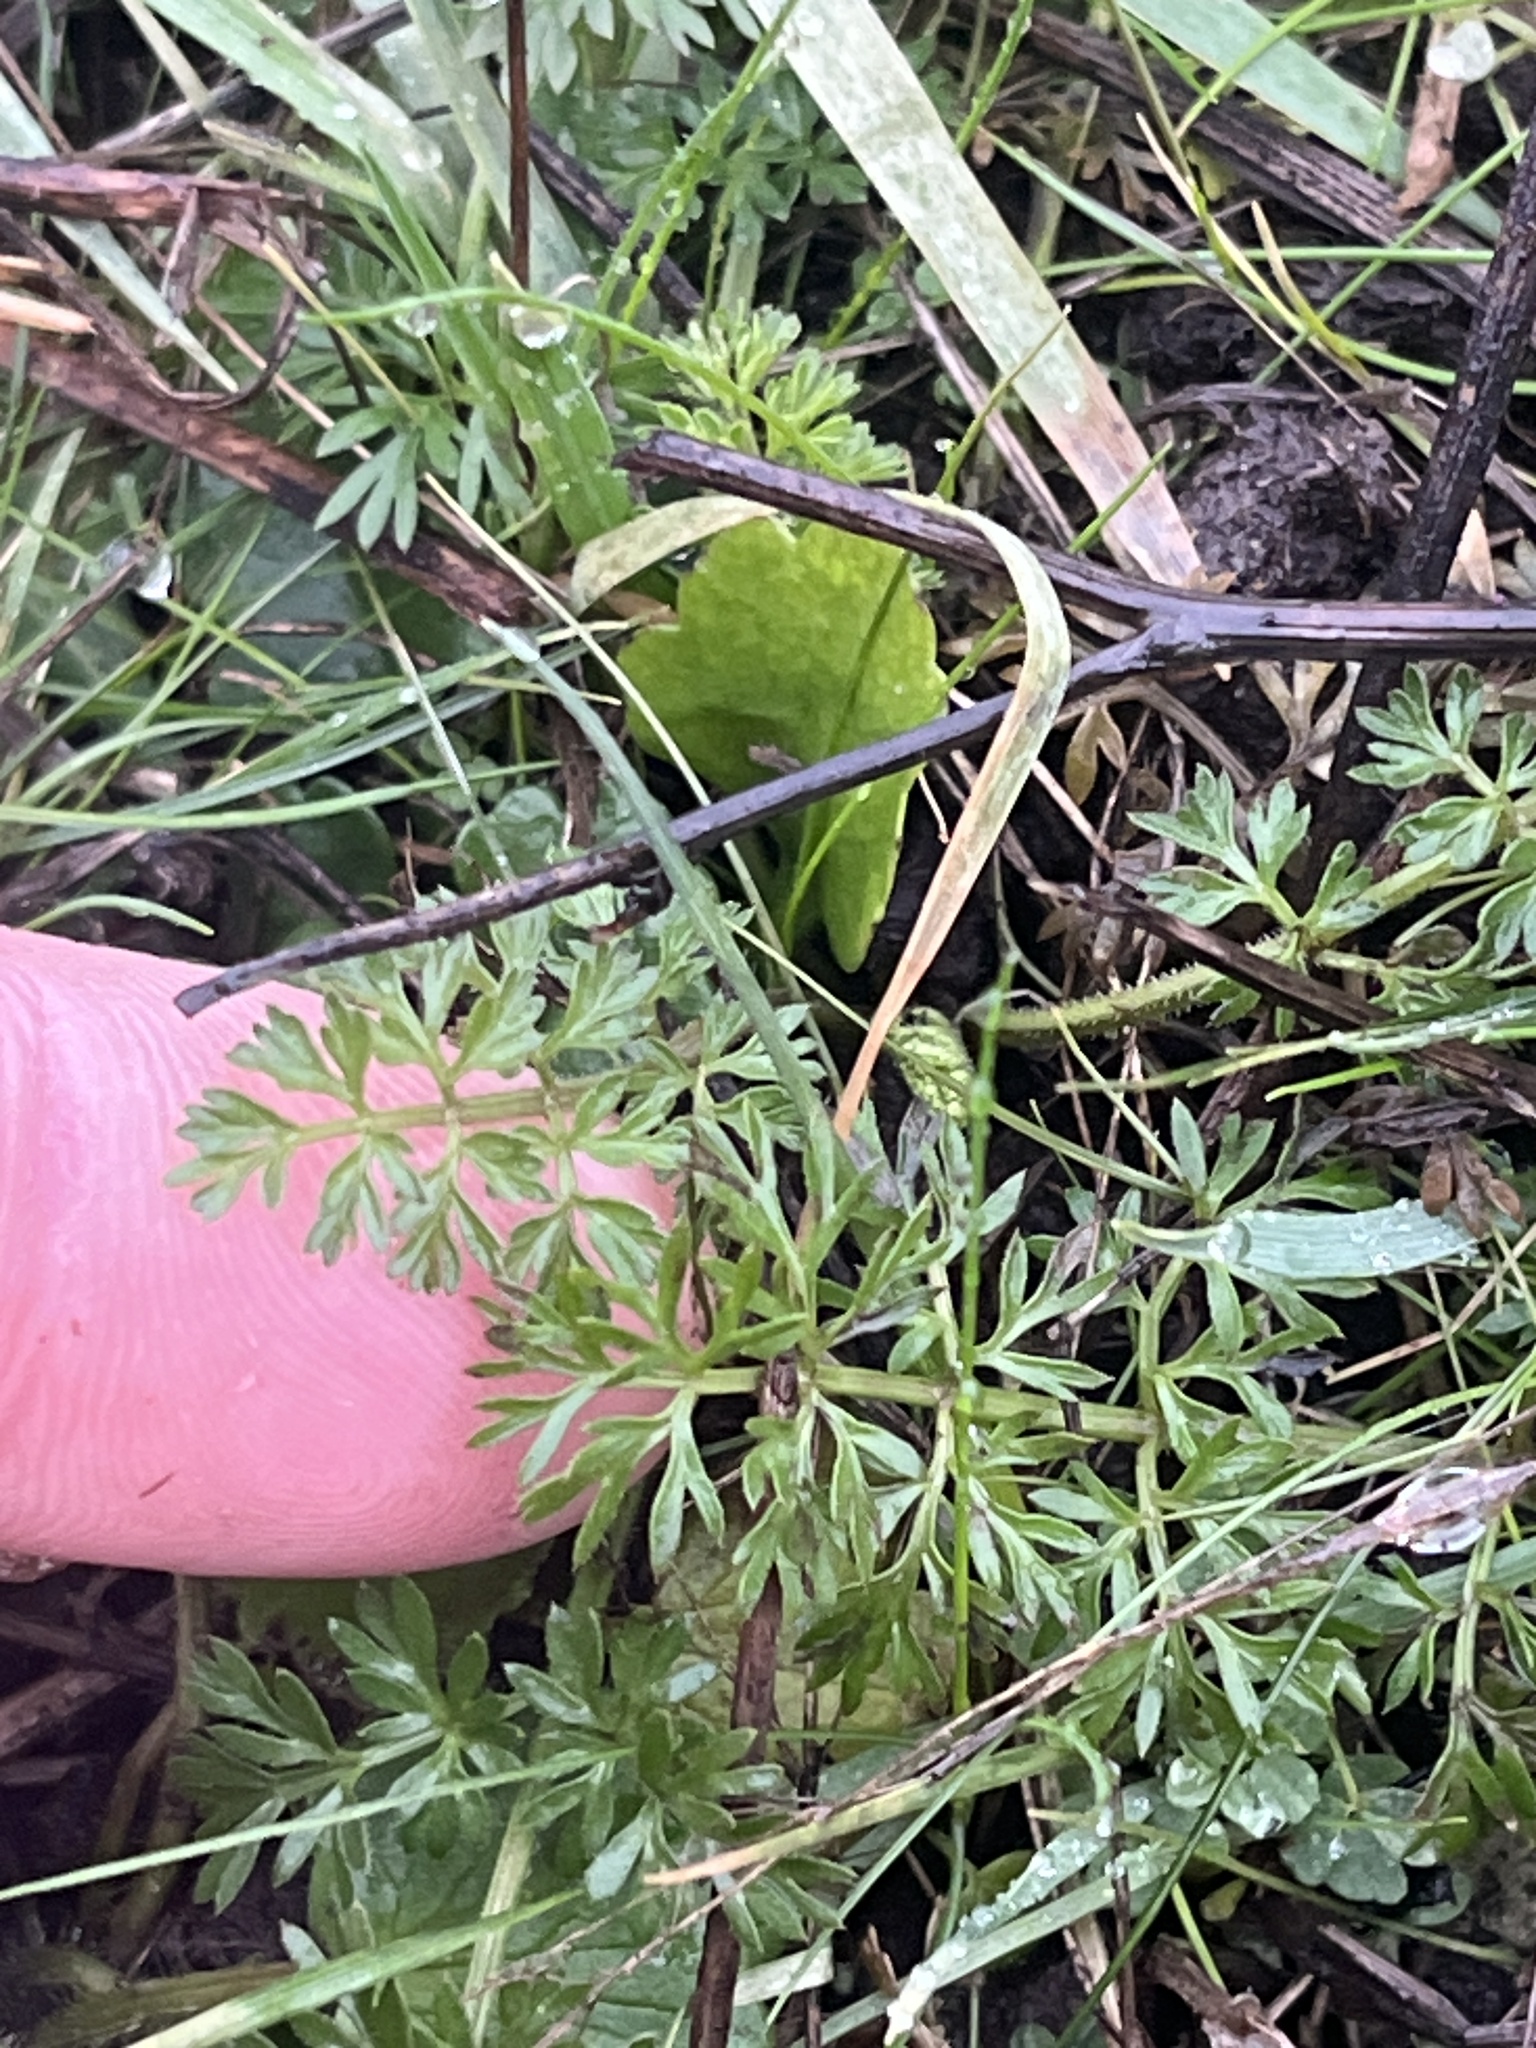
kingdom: Plantae
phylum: Tracheophyta
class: Magnoliopsida
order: Apiales
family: Apiaceae
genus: Lomatium
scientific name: Lomatium utriculatum
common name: Fine-leaf desert-parsley
